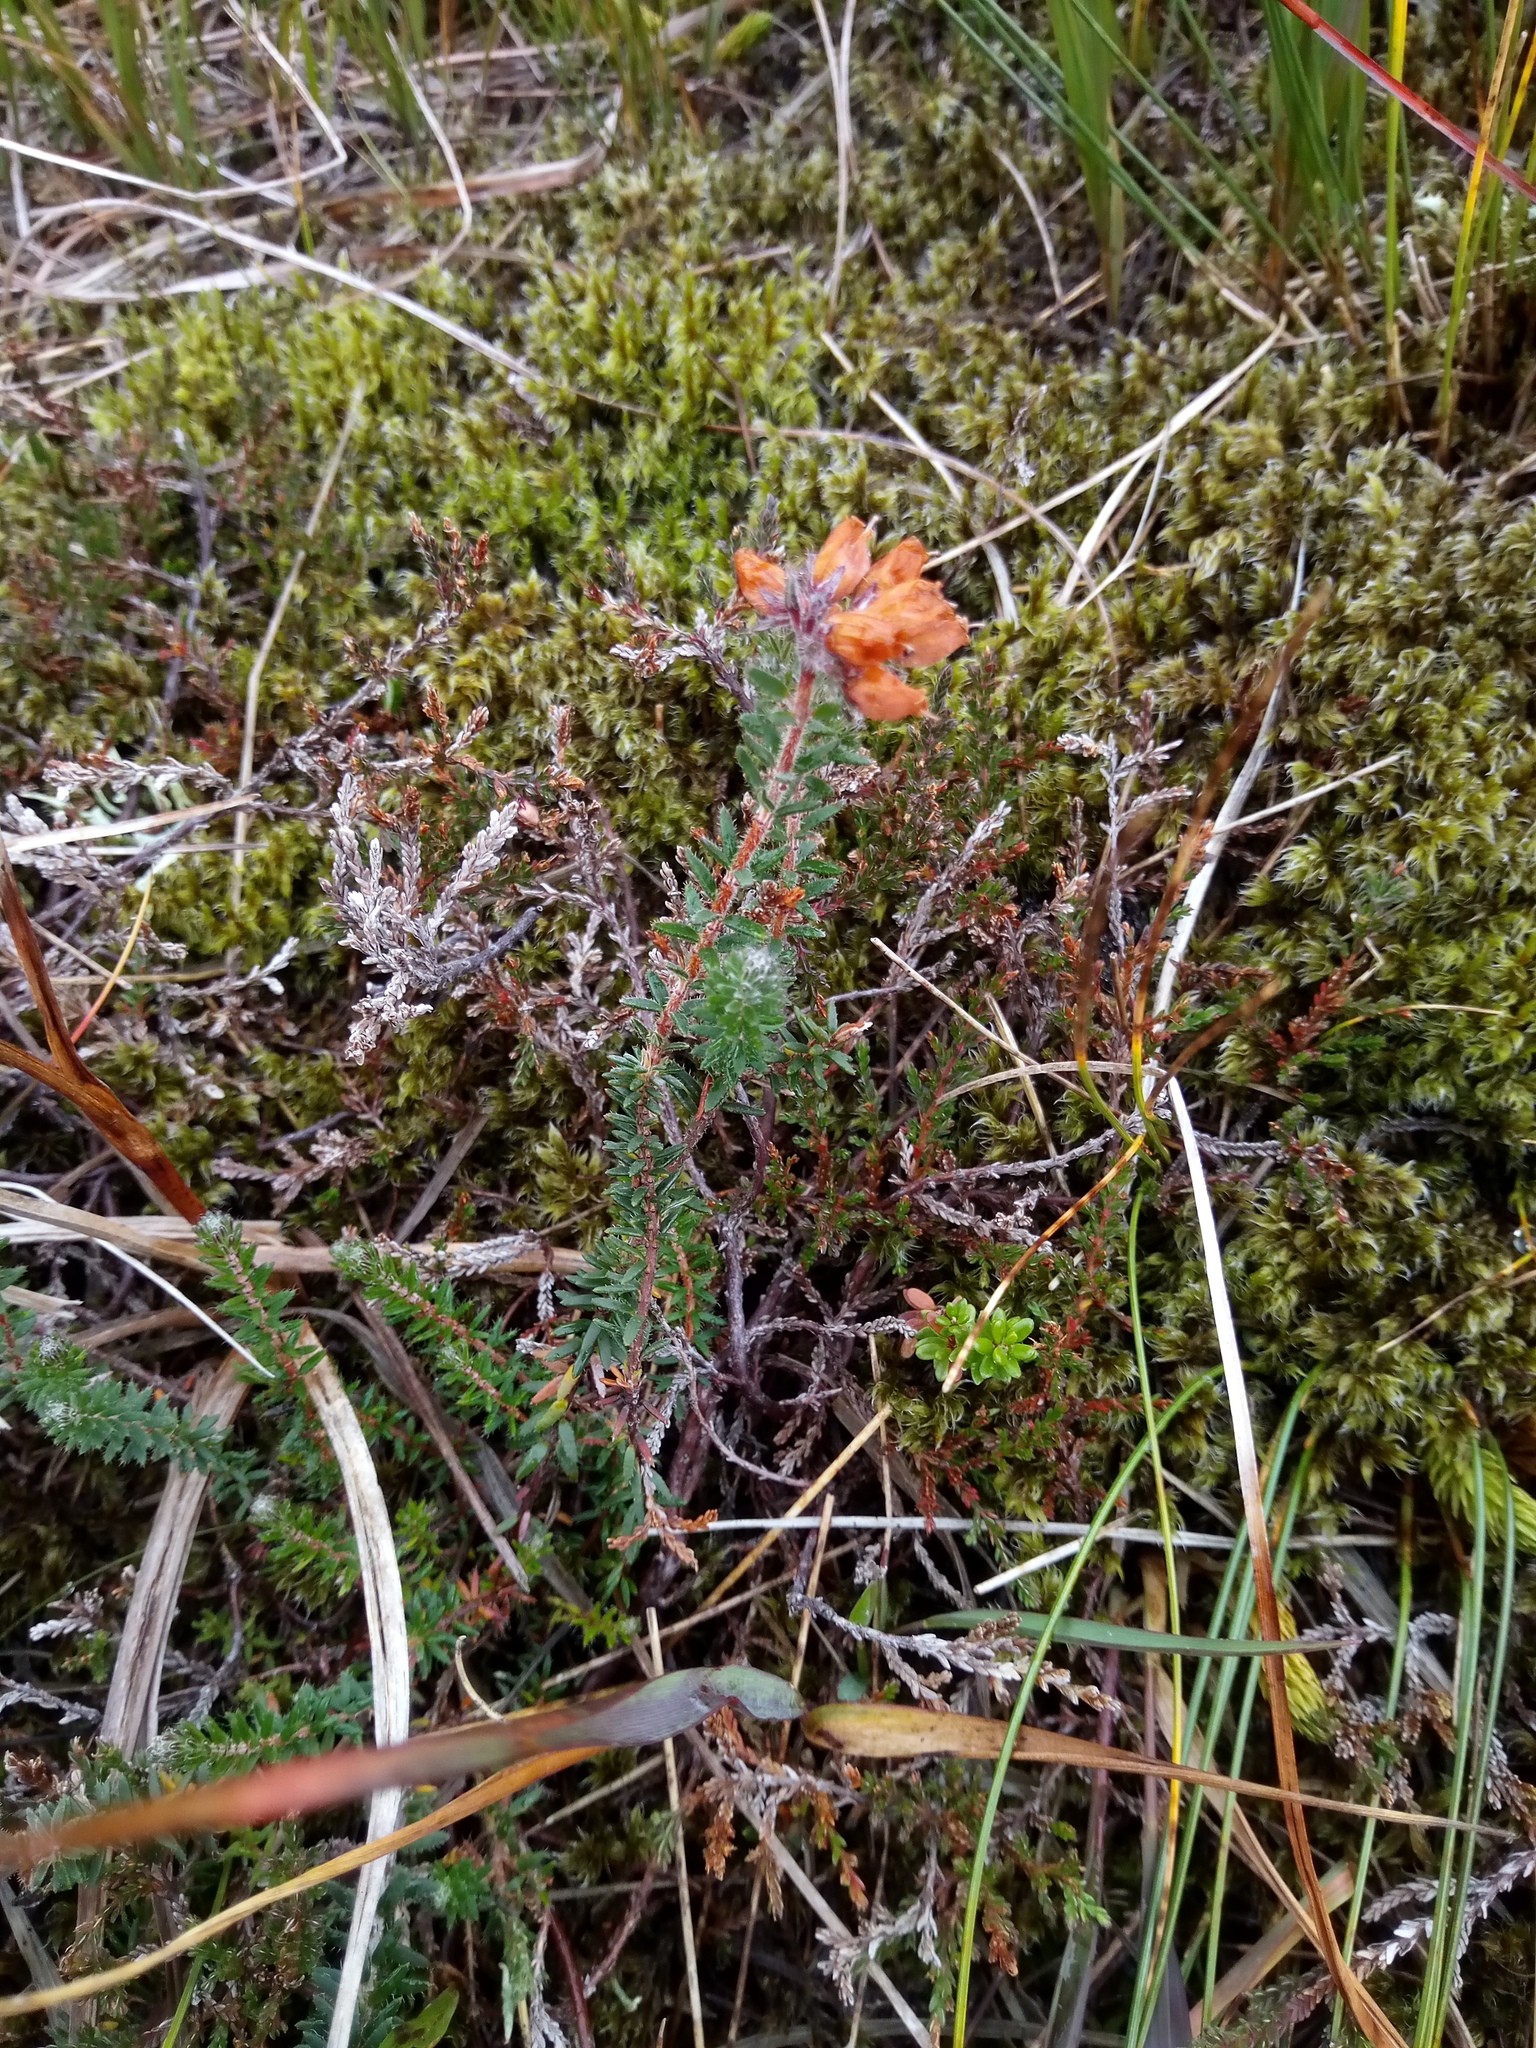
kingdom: Plantae
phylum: Tracheophyta
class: Magnoliopsida
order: Ericales
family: Ericaceae
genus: Erica
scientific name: Erica tetralix
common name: Cross-leaved heath
